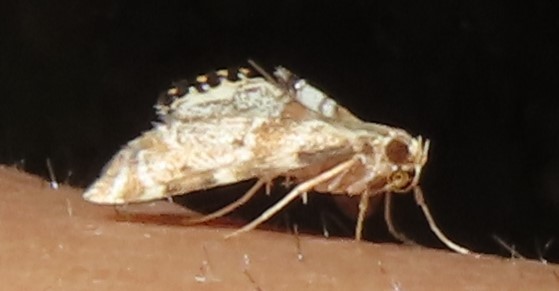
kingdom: Animalia
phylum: Arthropoda
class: Insecta
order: Lepidoptera
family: Crambidae
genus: Petrophila
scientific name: Petrophila fulicalis
